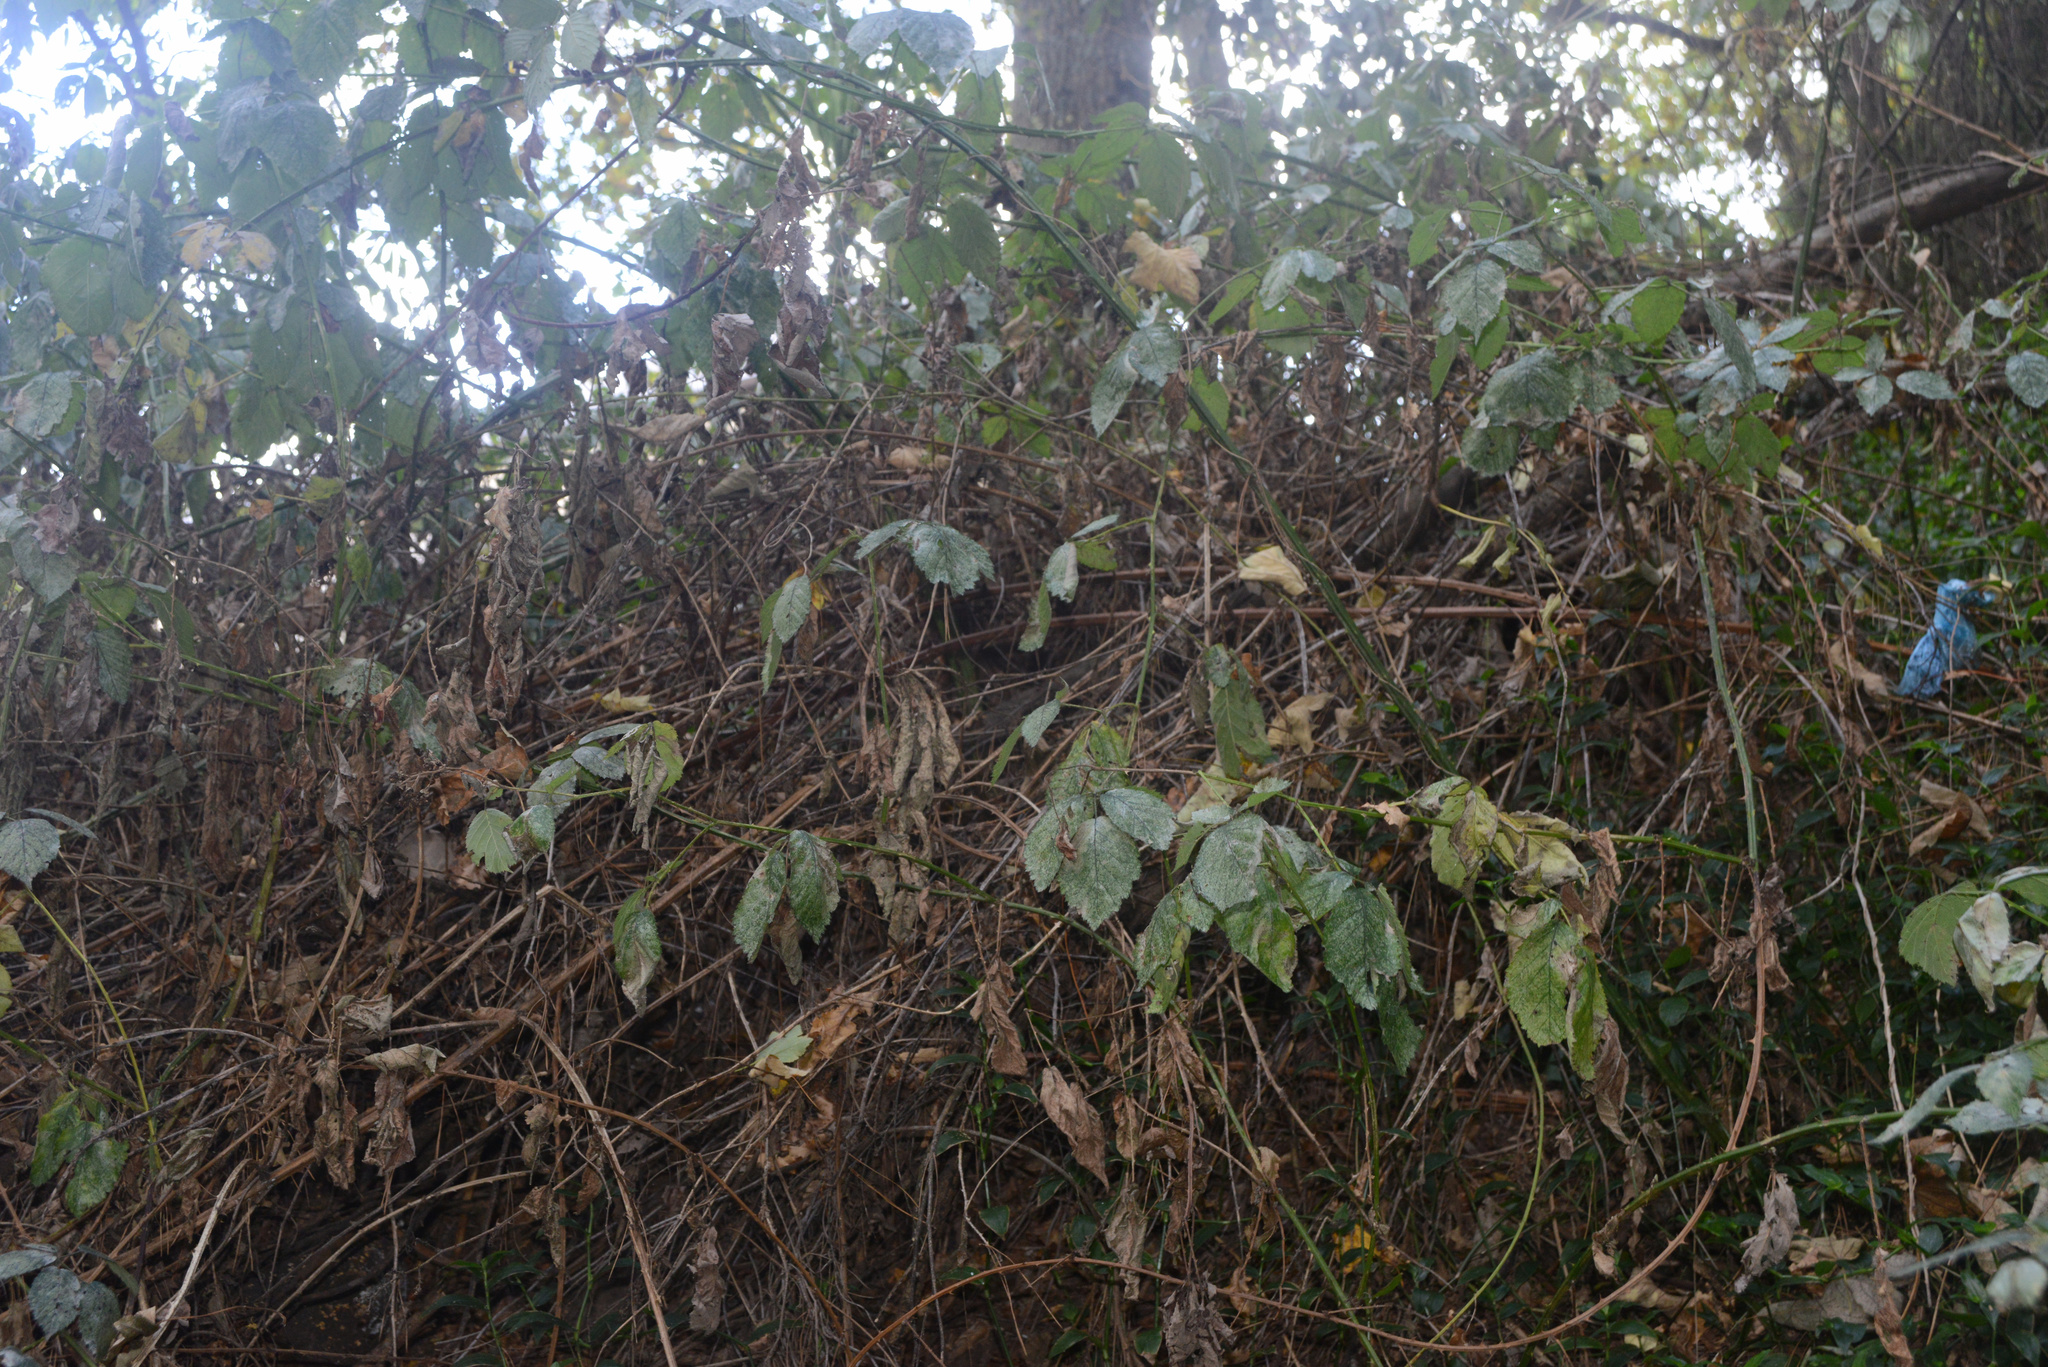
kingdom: Plantae
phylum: Tracheophyta
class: Magnoliopsida
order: Rosales
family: Rosaceae
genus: Rubus
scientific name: Rubus
